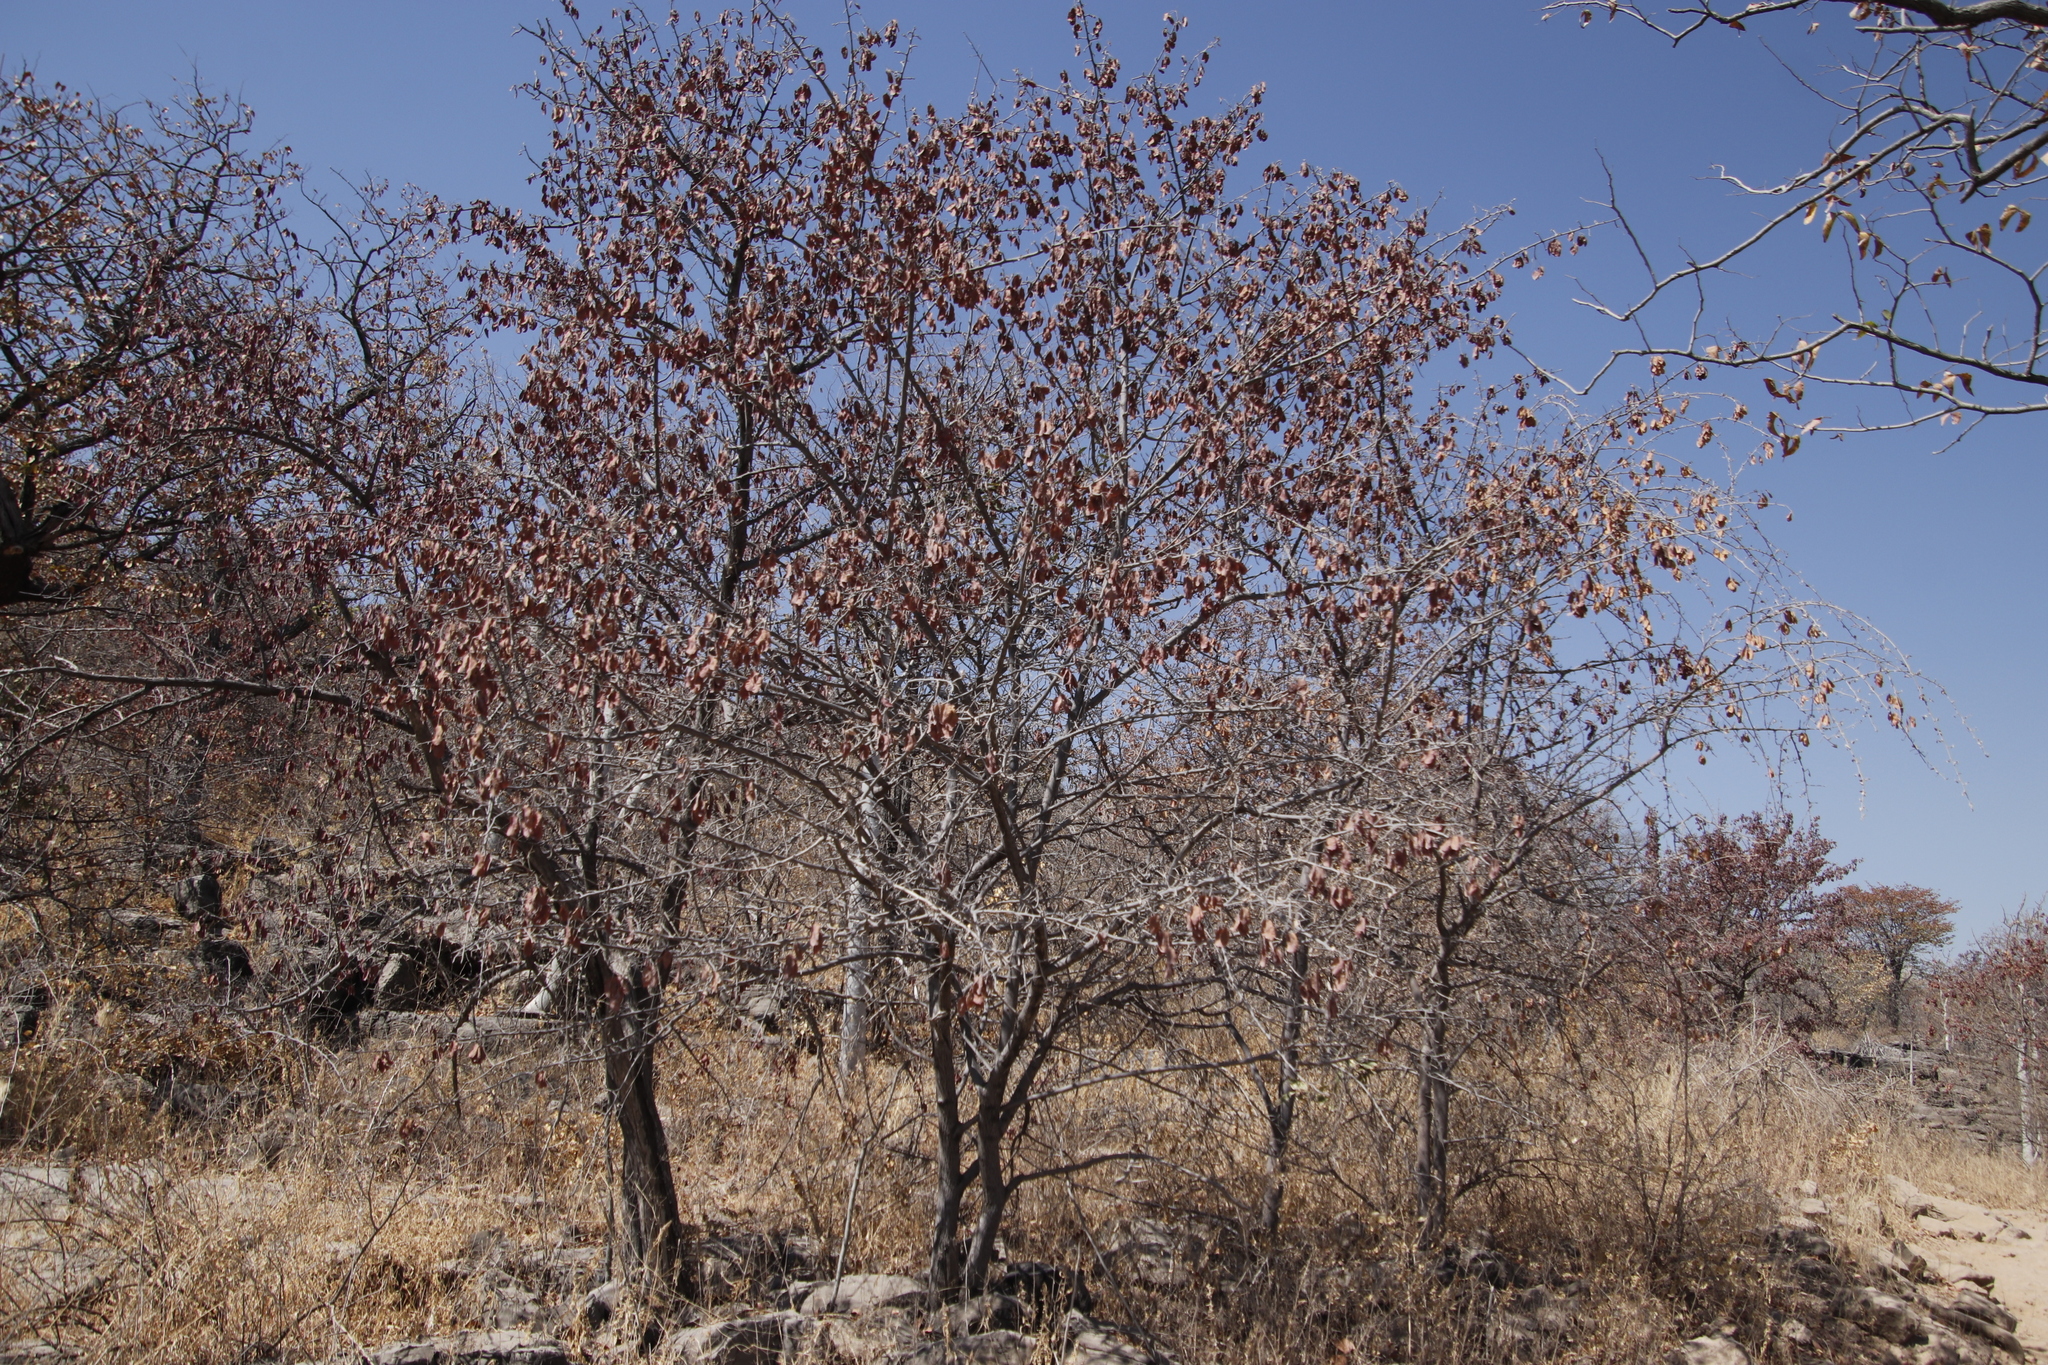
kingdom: Plantae
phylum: Tracheophyta
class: Magnoliopsida
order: Myrtales
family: Combretaceae
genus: Terminalia
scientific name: Terminalia prunioides
